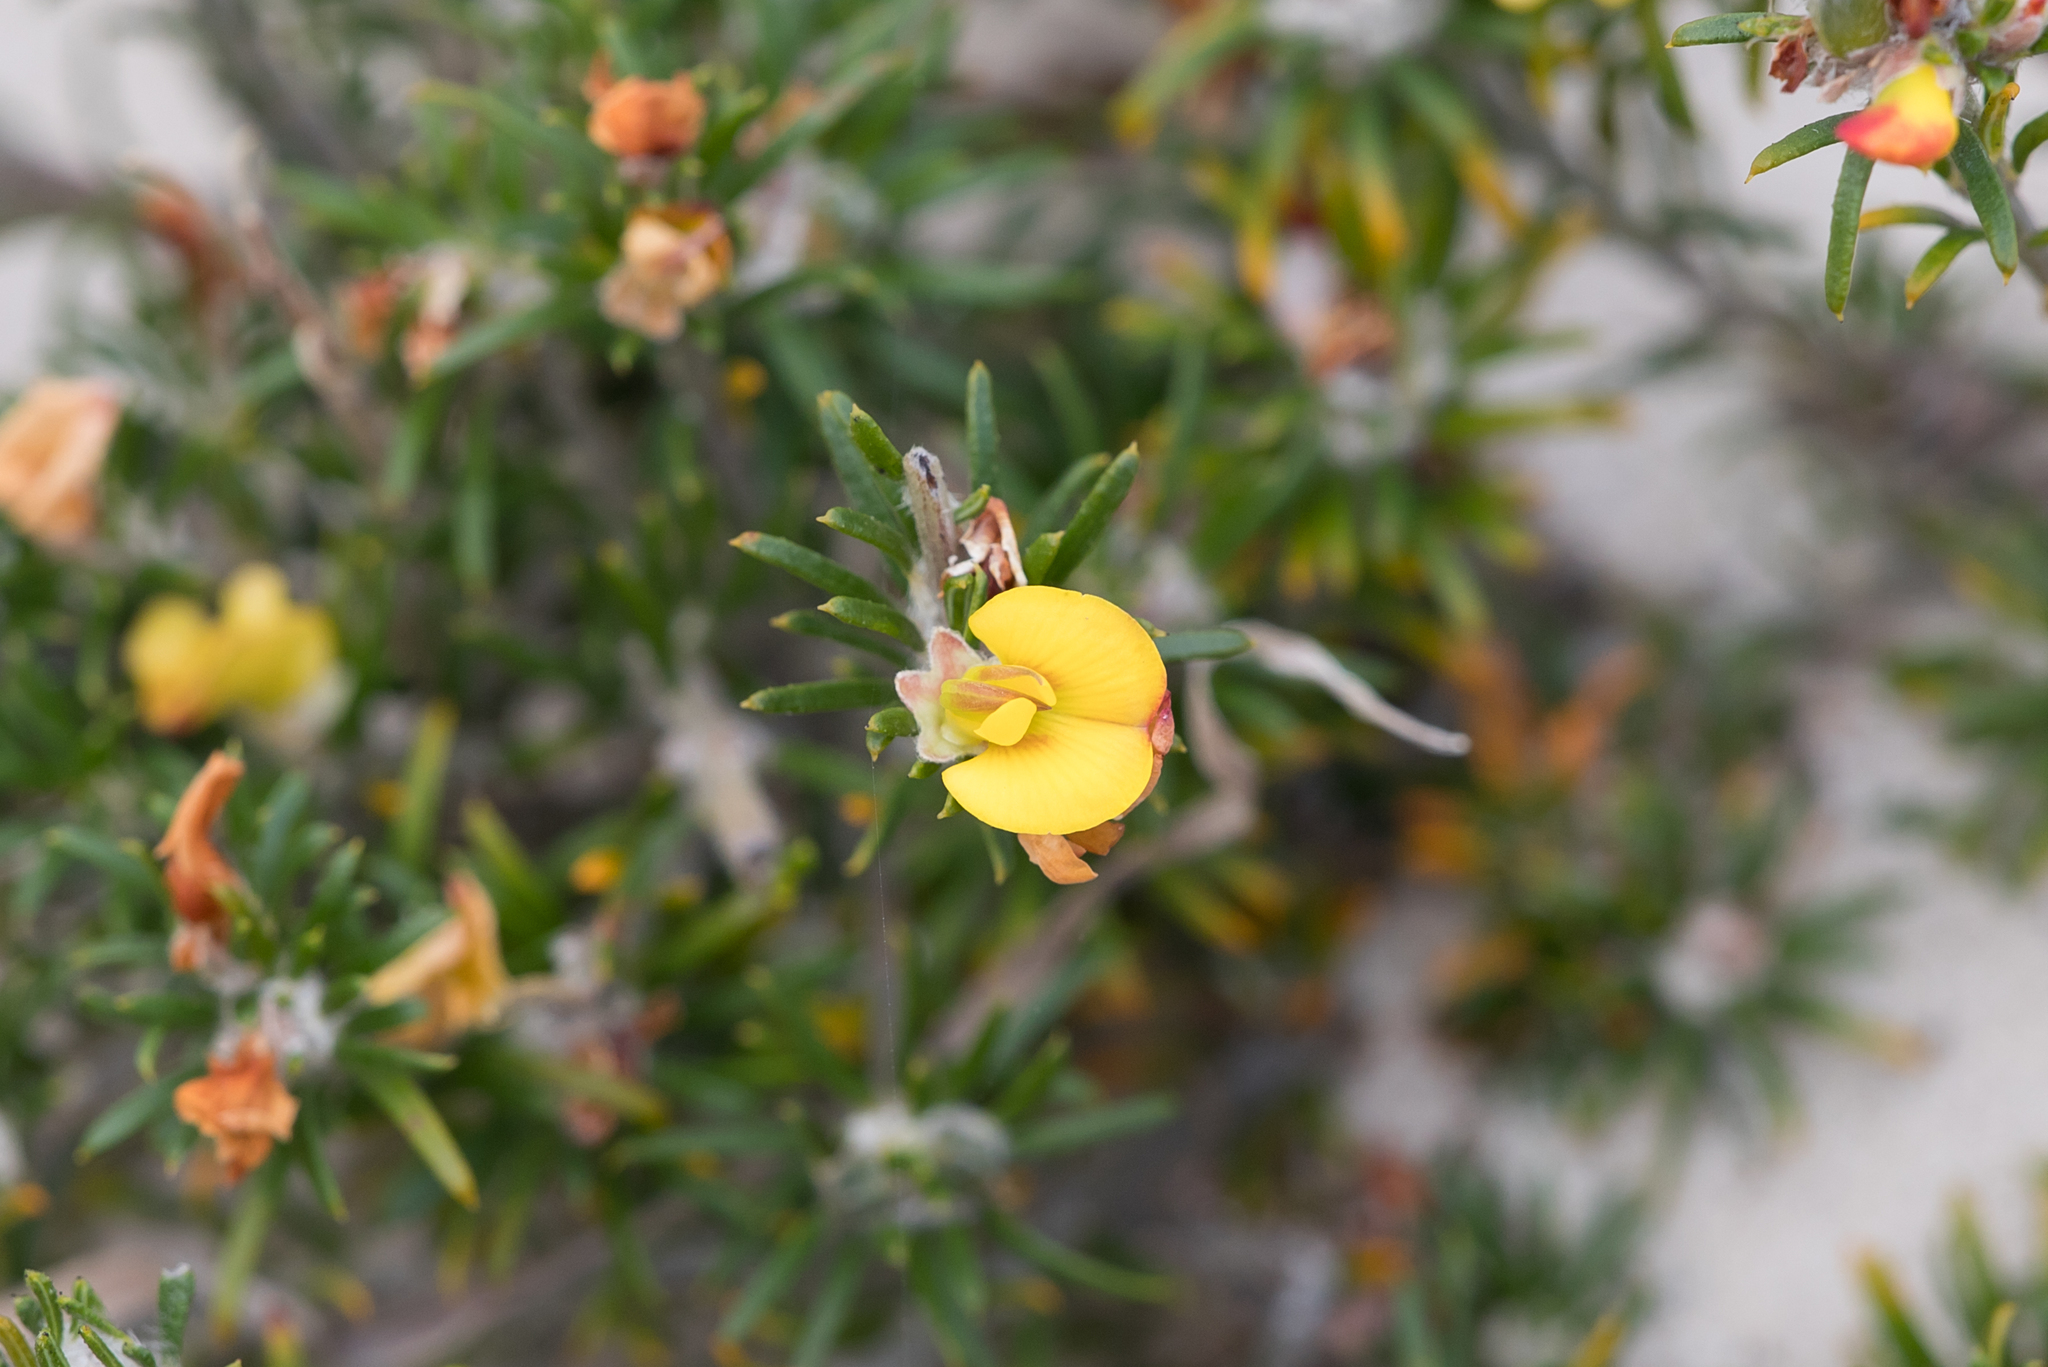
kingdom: Plantae
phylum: Tracheophyta
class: Magnoliopsida
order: Fabales
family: Fabaceae
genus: Phyllota
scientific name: Phyllota pleurandroides
